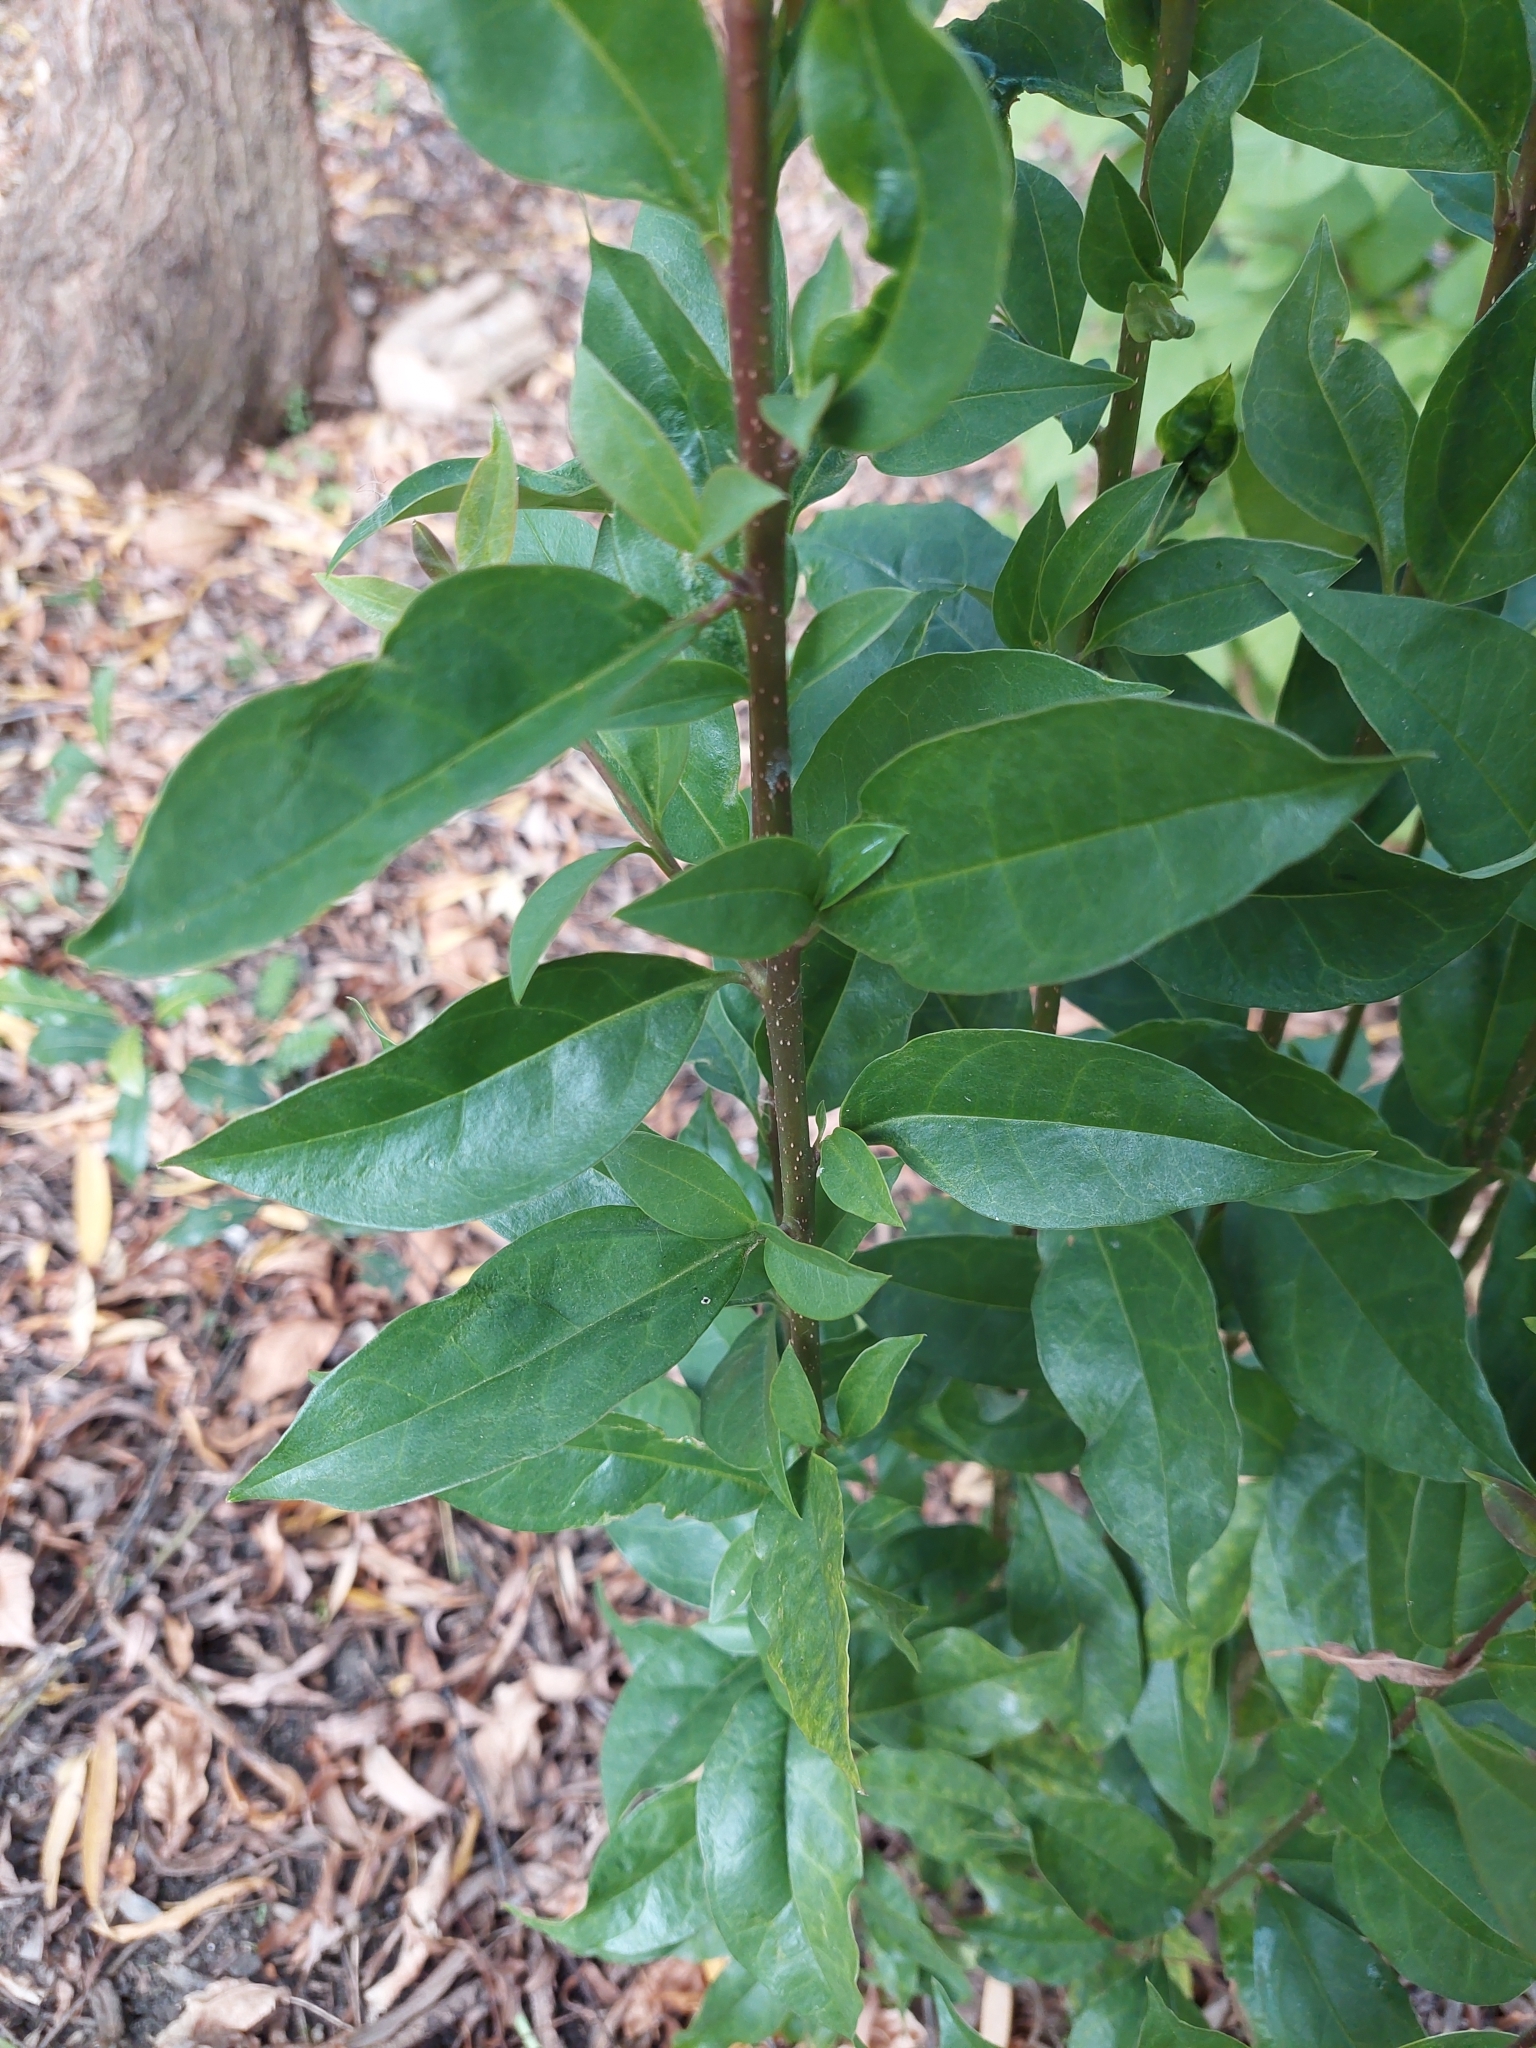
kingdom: Plantae
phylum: Tracheophyta
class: Magnoliopsida
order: Lamiales
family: Oleaceae
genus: Ligustrum
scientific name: Ligustrum lucidum
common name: Glossy privet
